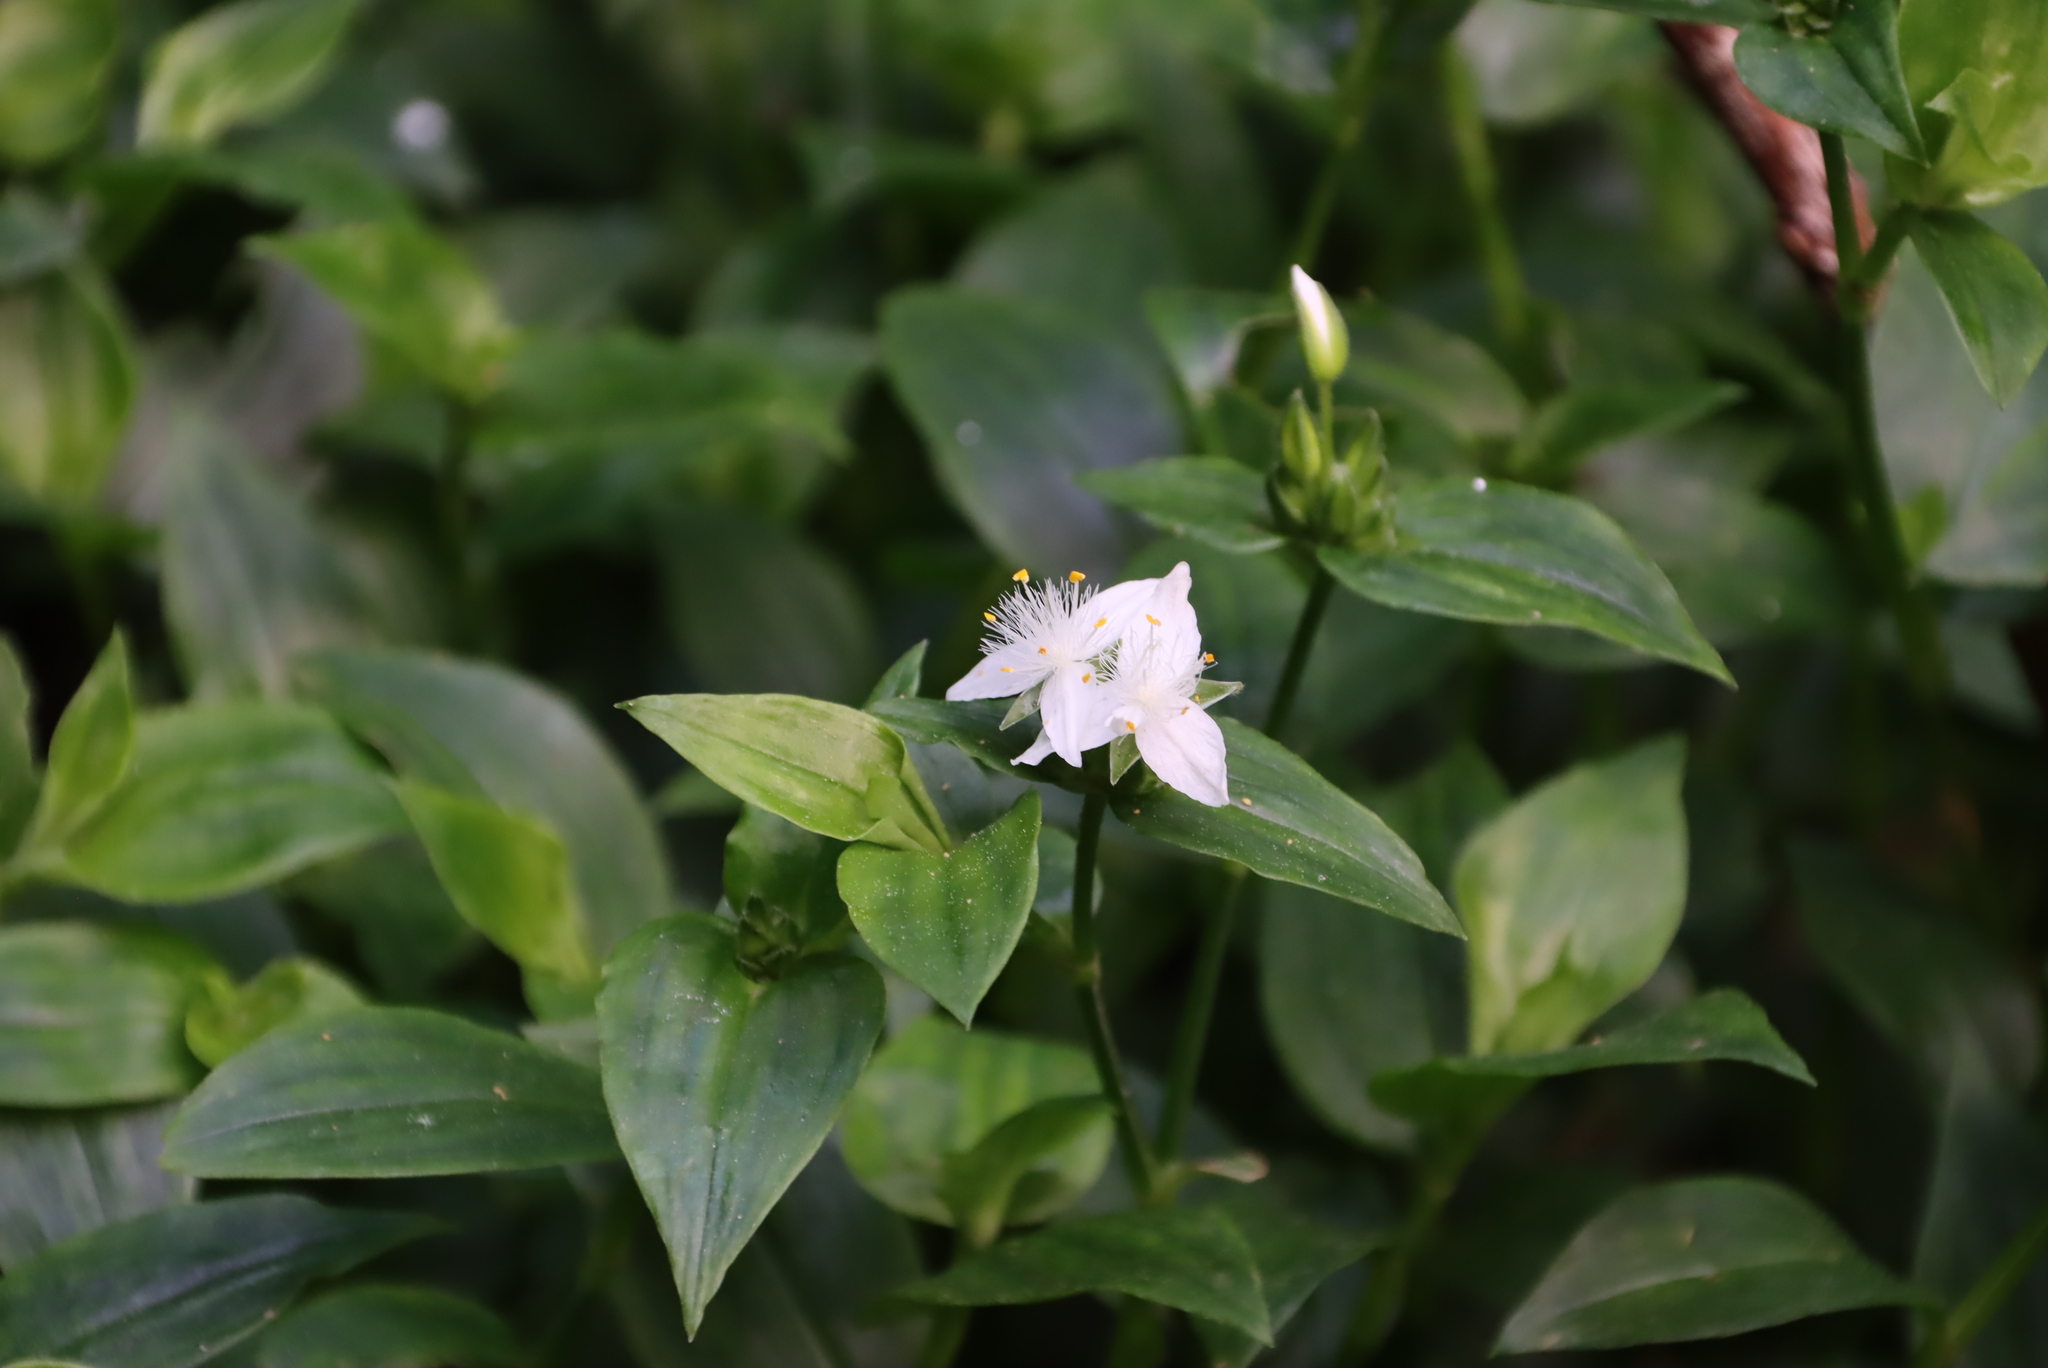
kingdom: Plantae
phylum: Tracheophyta
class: Liliopsida
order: Commelinales
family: Commelinaceae
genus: Tradescantia
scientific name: Tradescantia fluminensis
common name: Wandering-jew
